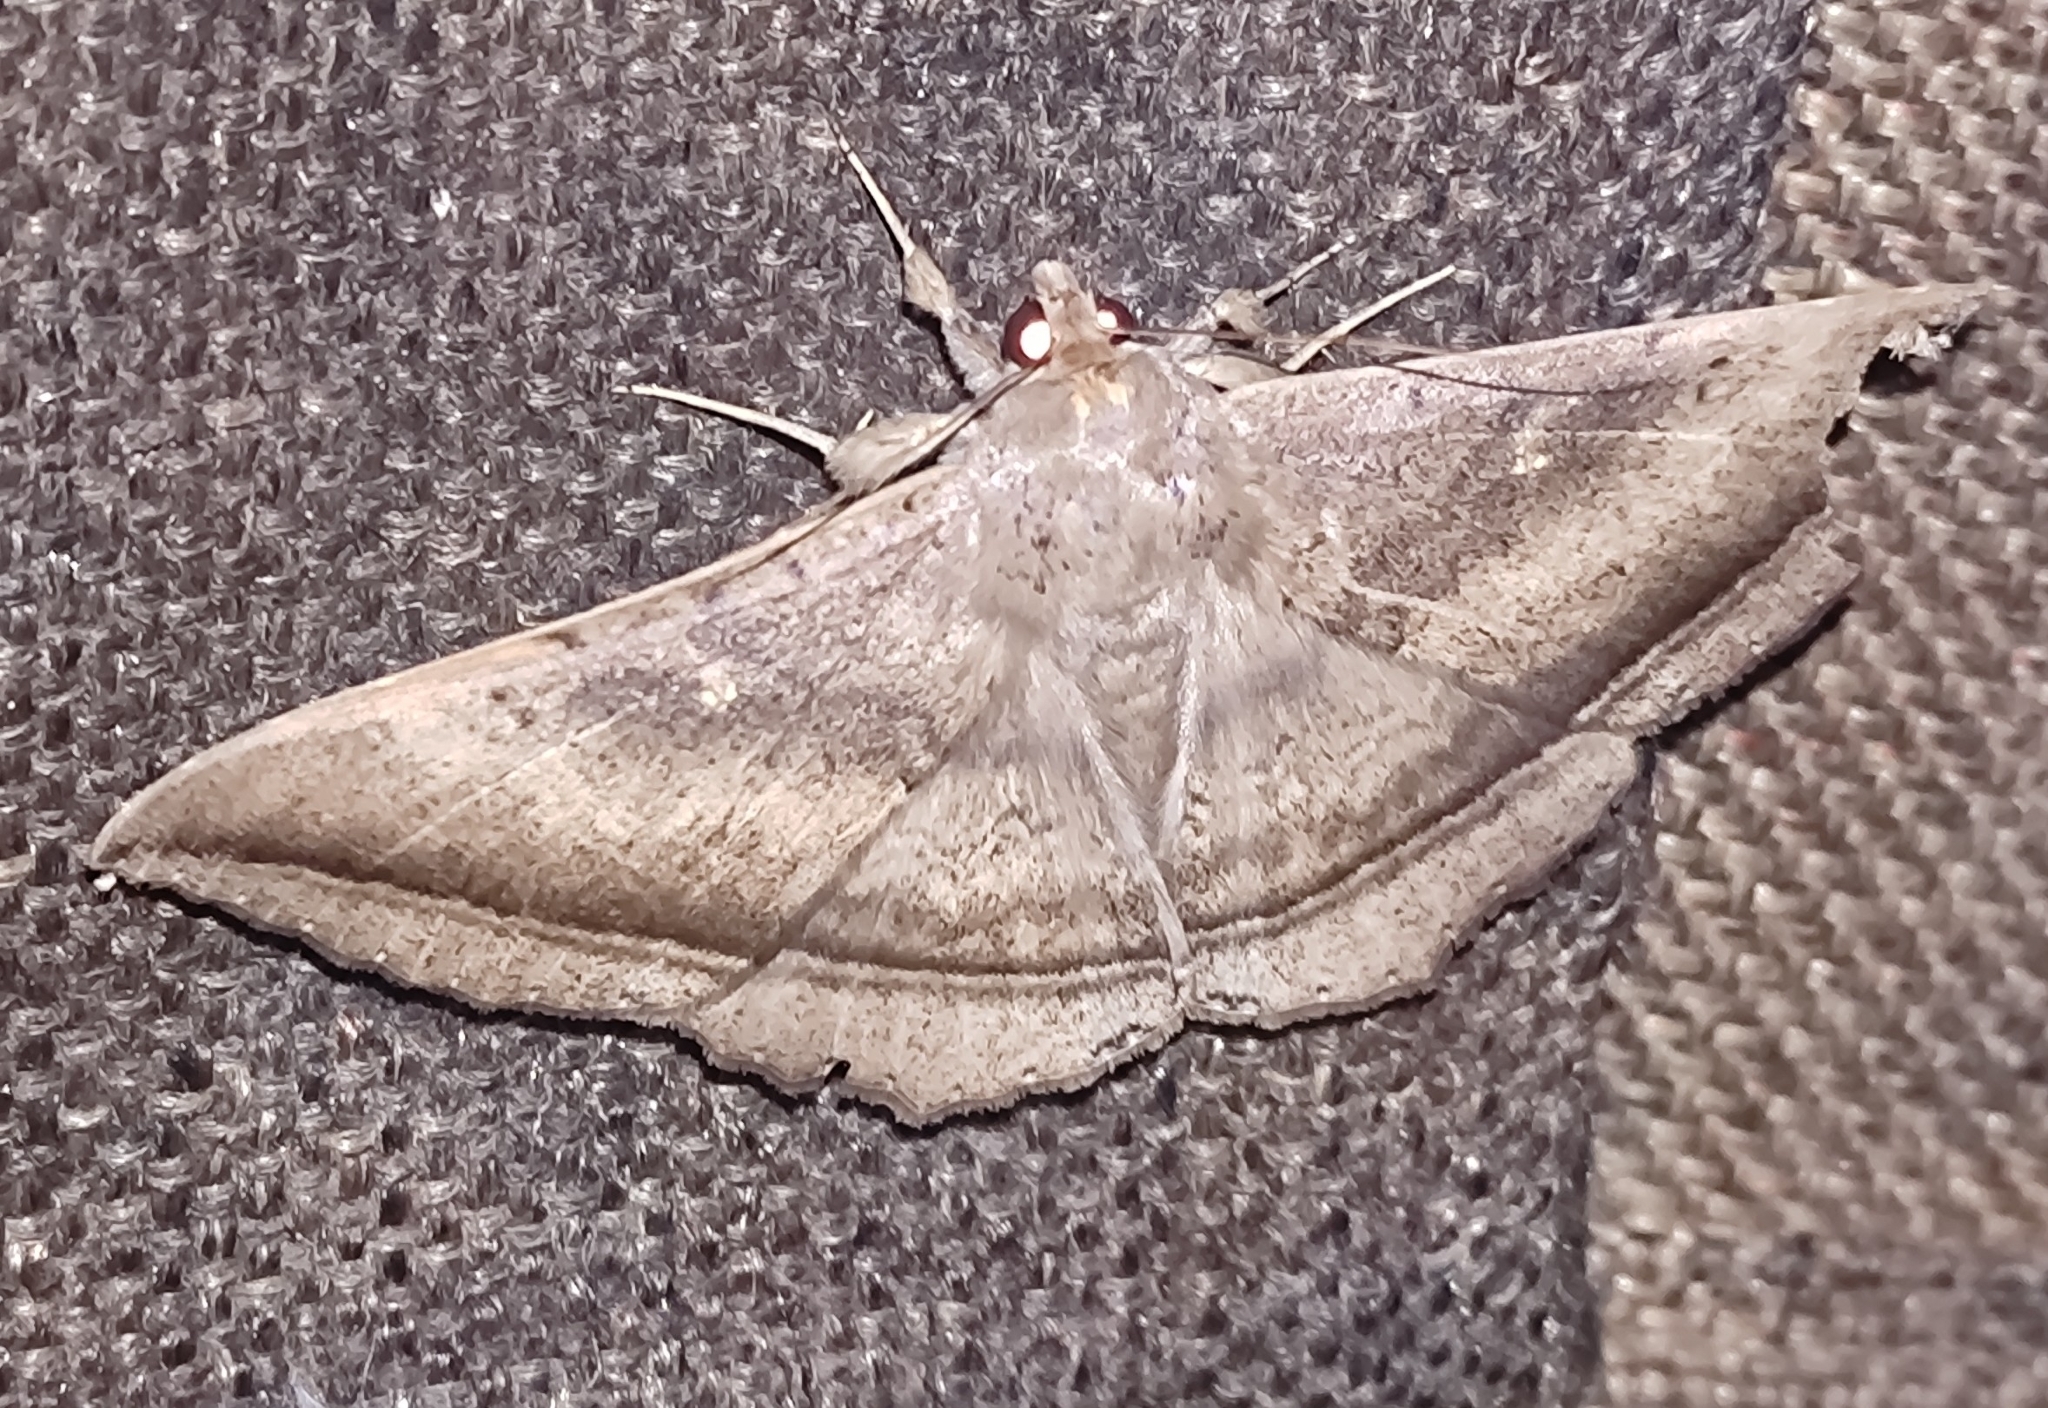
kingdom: Animalia
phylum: Arthropoda
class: Insecta
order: Lepidoptera
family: Erebidae
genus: Hulodes
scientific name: Hulodes caranea
